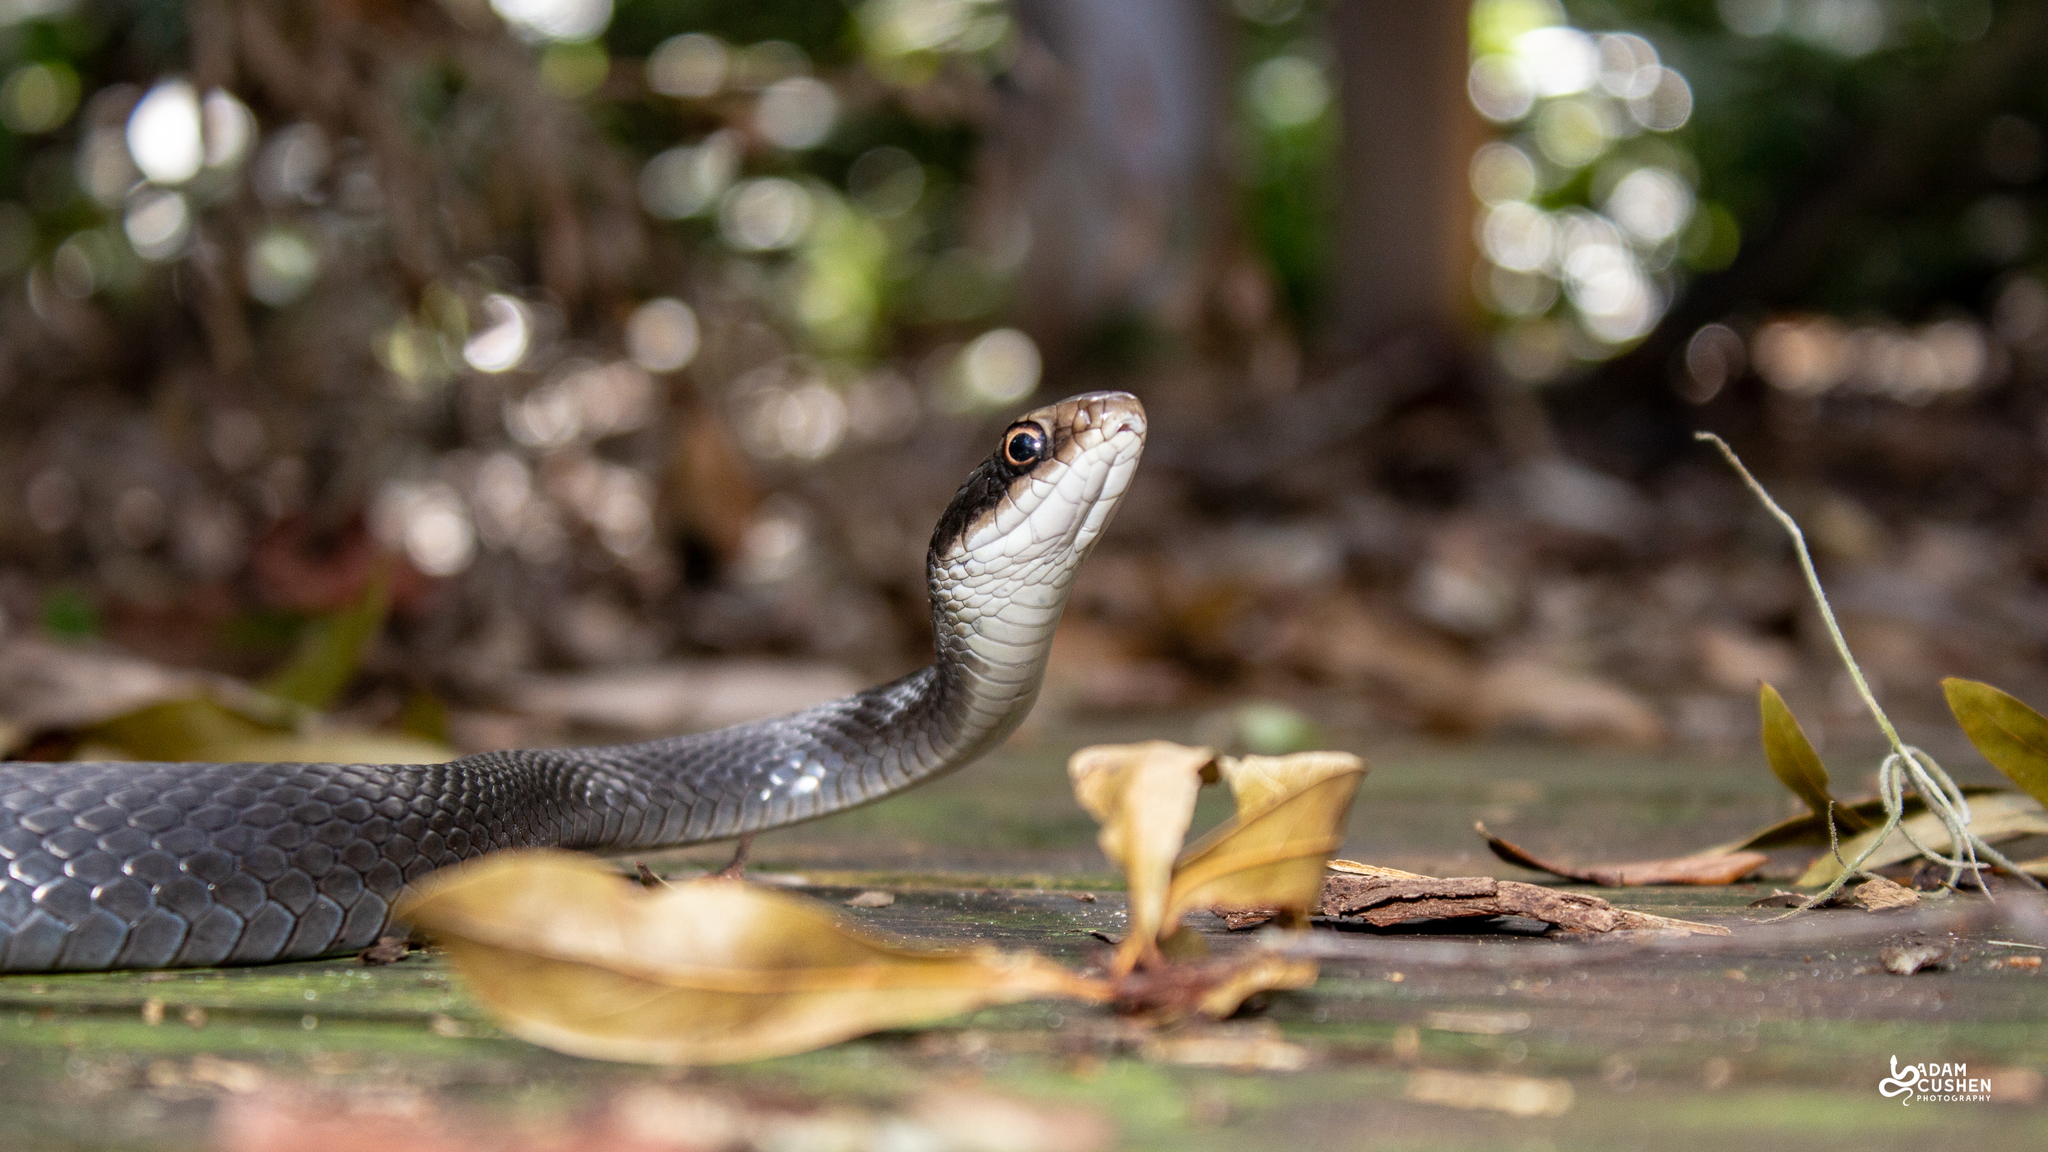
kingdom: Animalia
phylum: Chordata
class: Squamata
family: Colubridae
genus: Coluber
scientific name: Coluber constrictor
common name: Eastern racer
